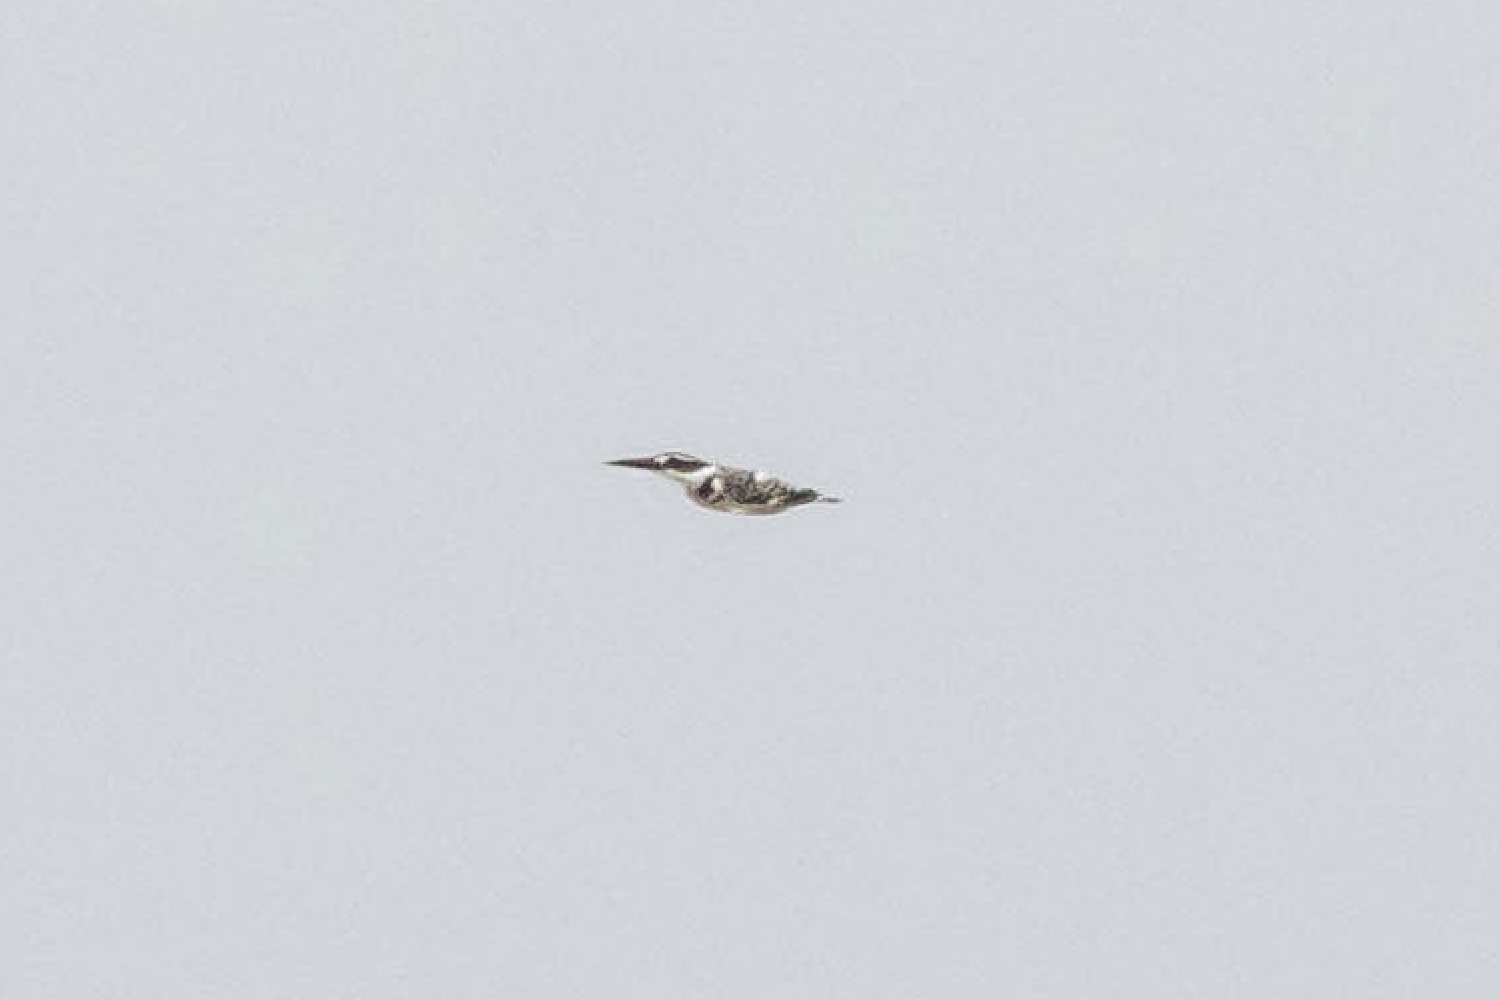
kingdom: Animalia
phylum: Chordata
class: Aves
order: Coraciiformes
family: Alcedinidae
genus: Ceryle
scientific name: Ceryle rudis
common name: Pied kingfisher
